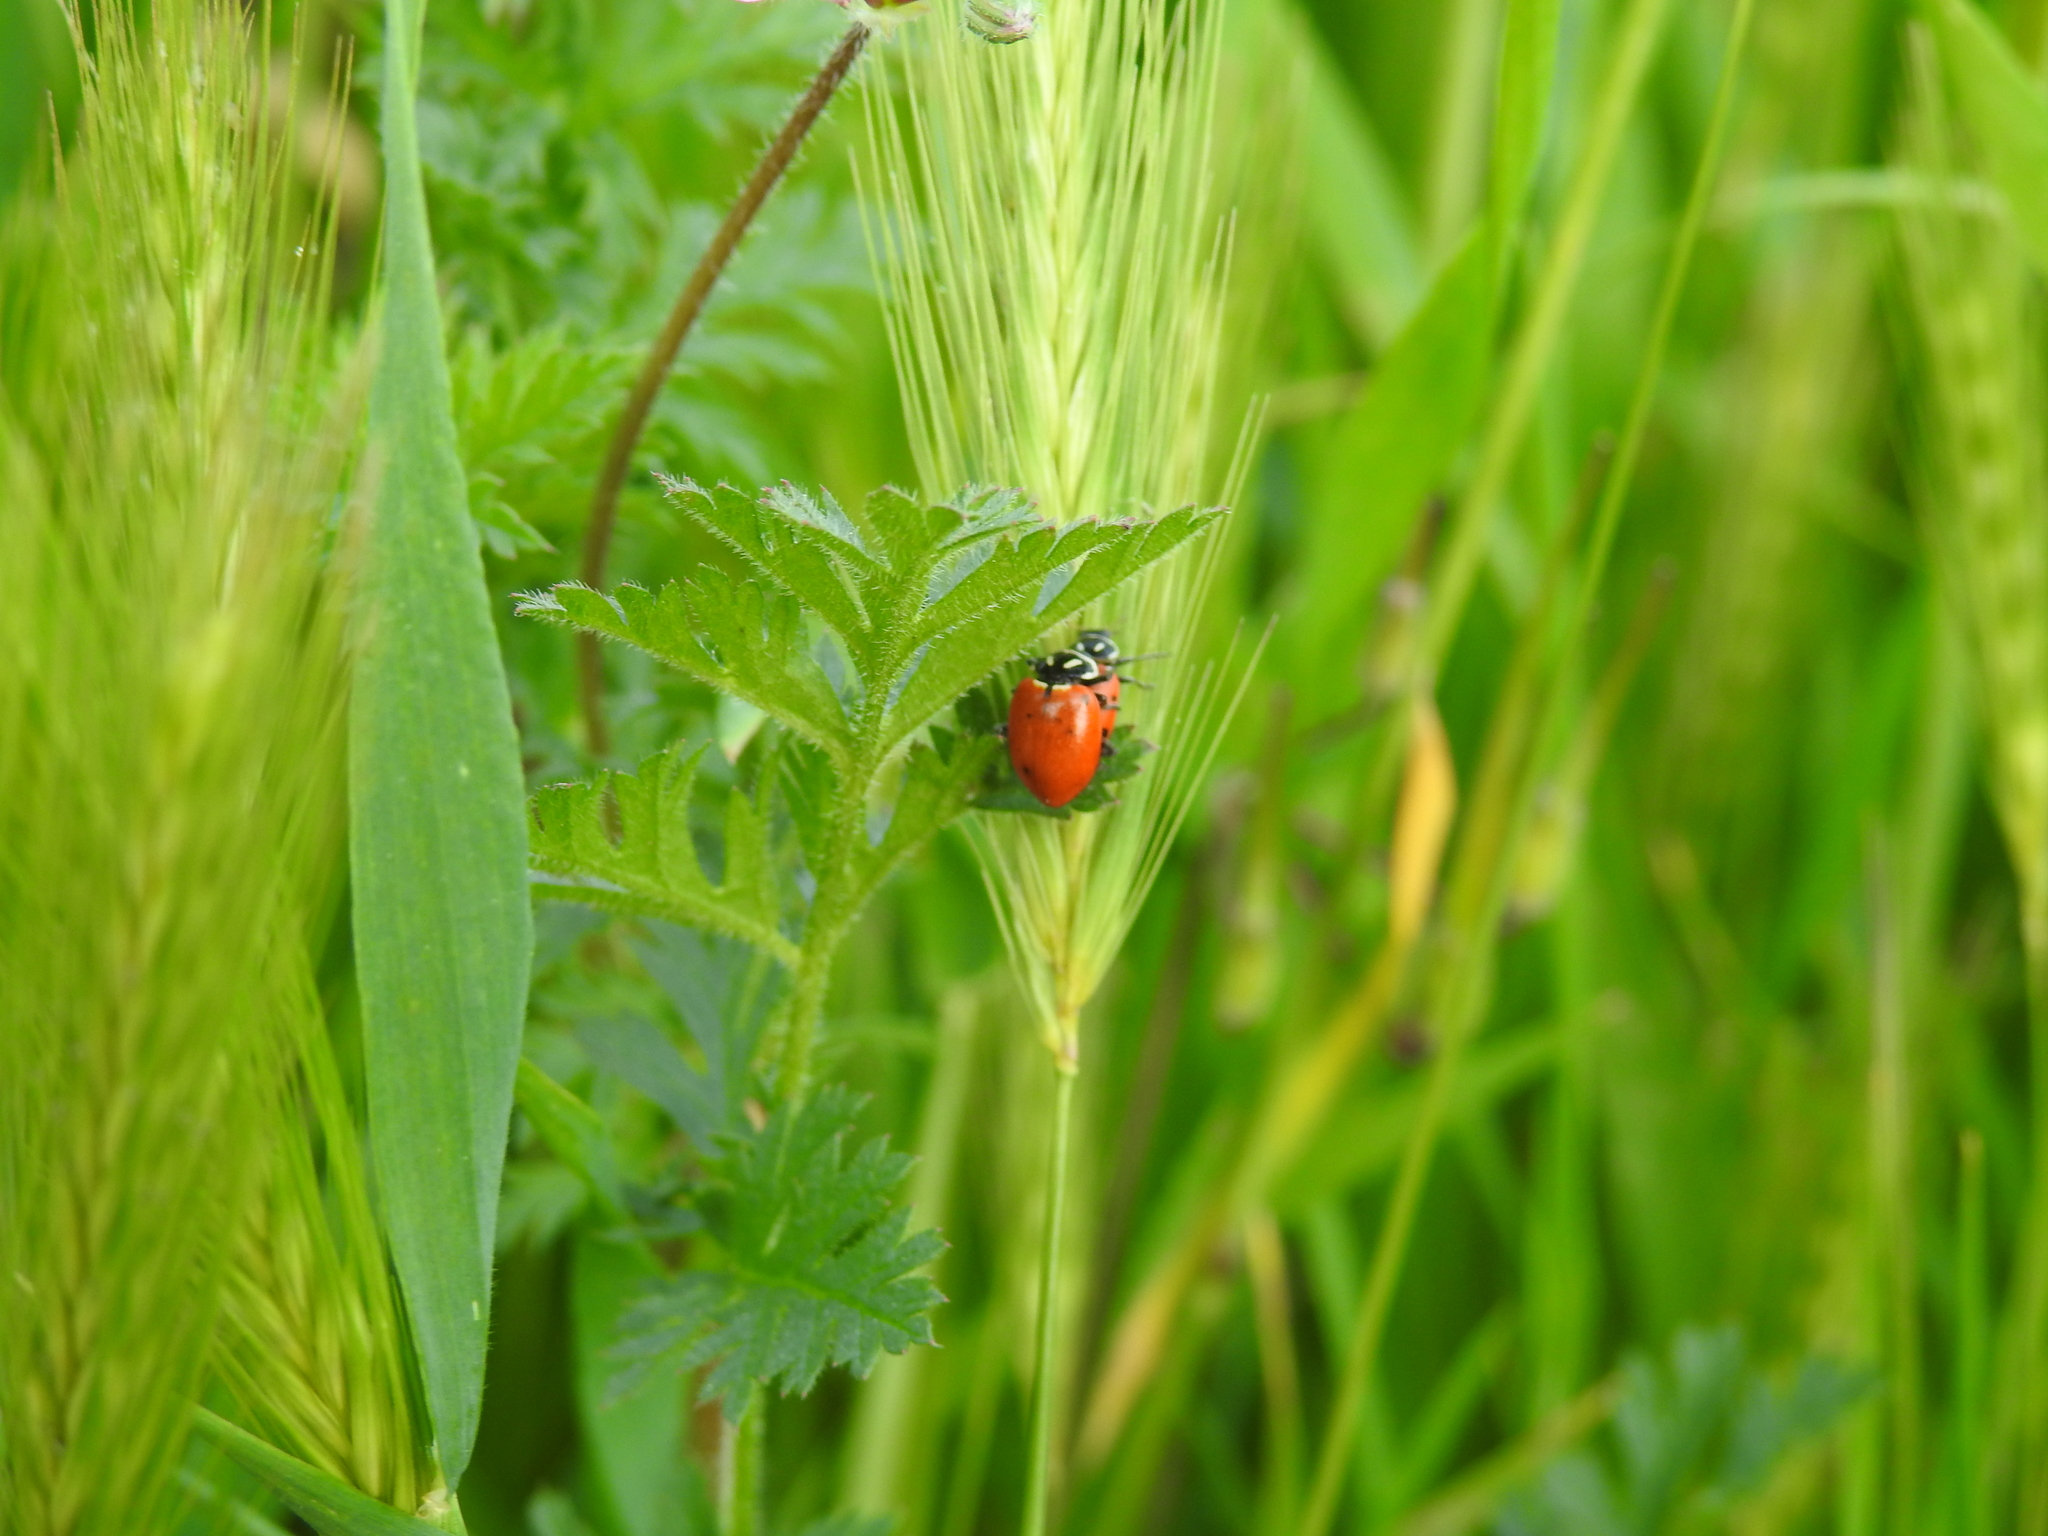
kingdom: Animalia
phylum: Arthropoda
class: Insecta
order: Coleoptera
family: Coccinellidae
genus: Hippodamia
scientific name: Hippodamia convergens
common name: Convergent lady beetle
